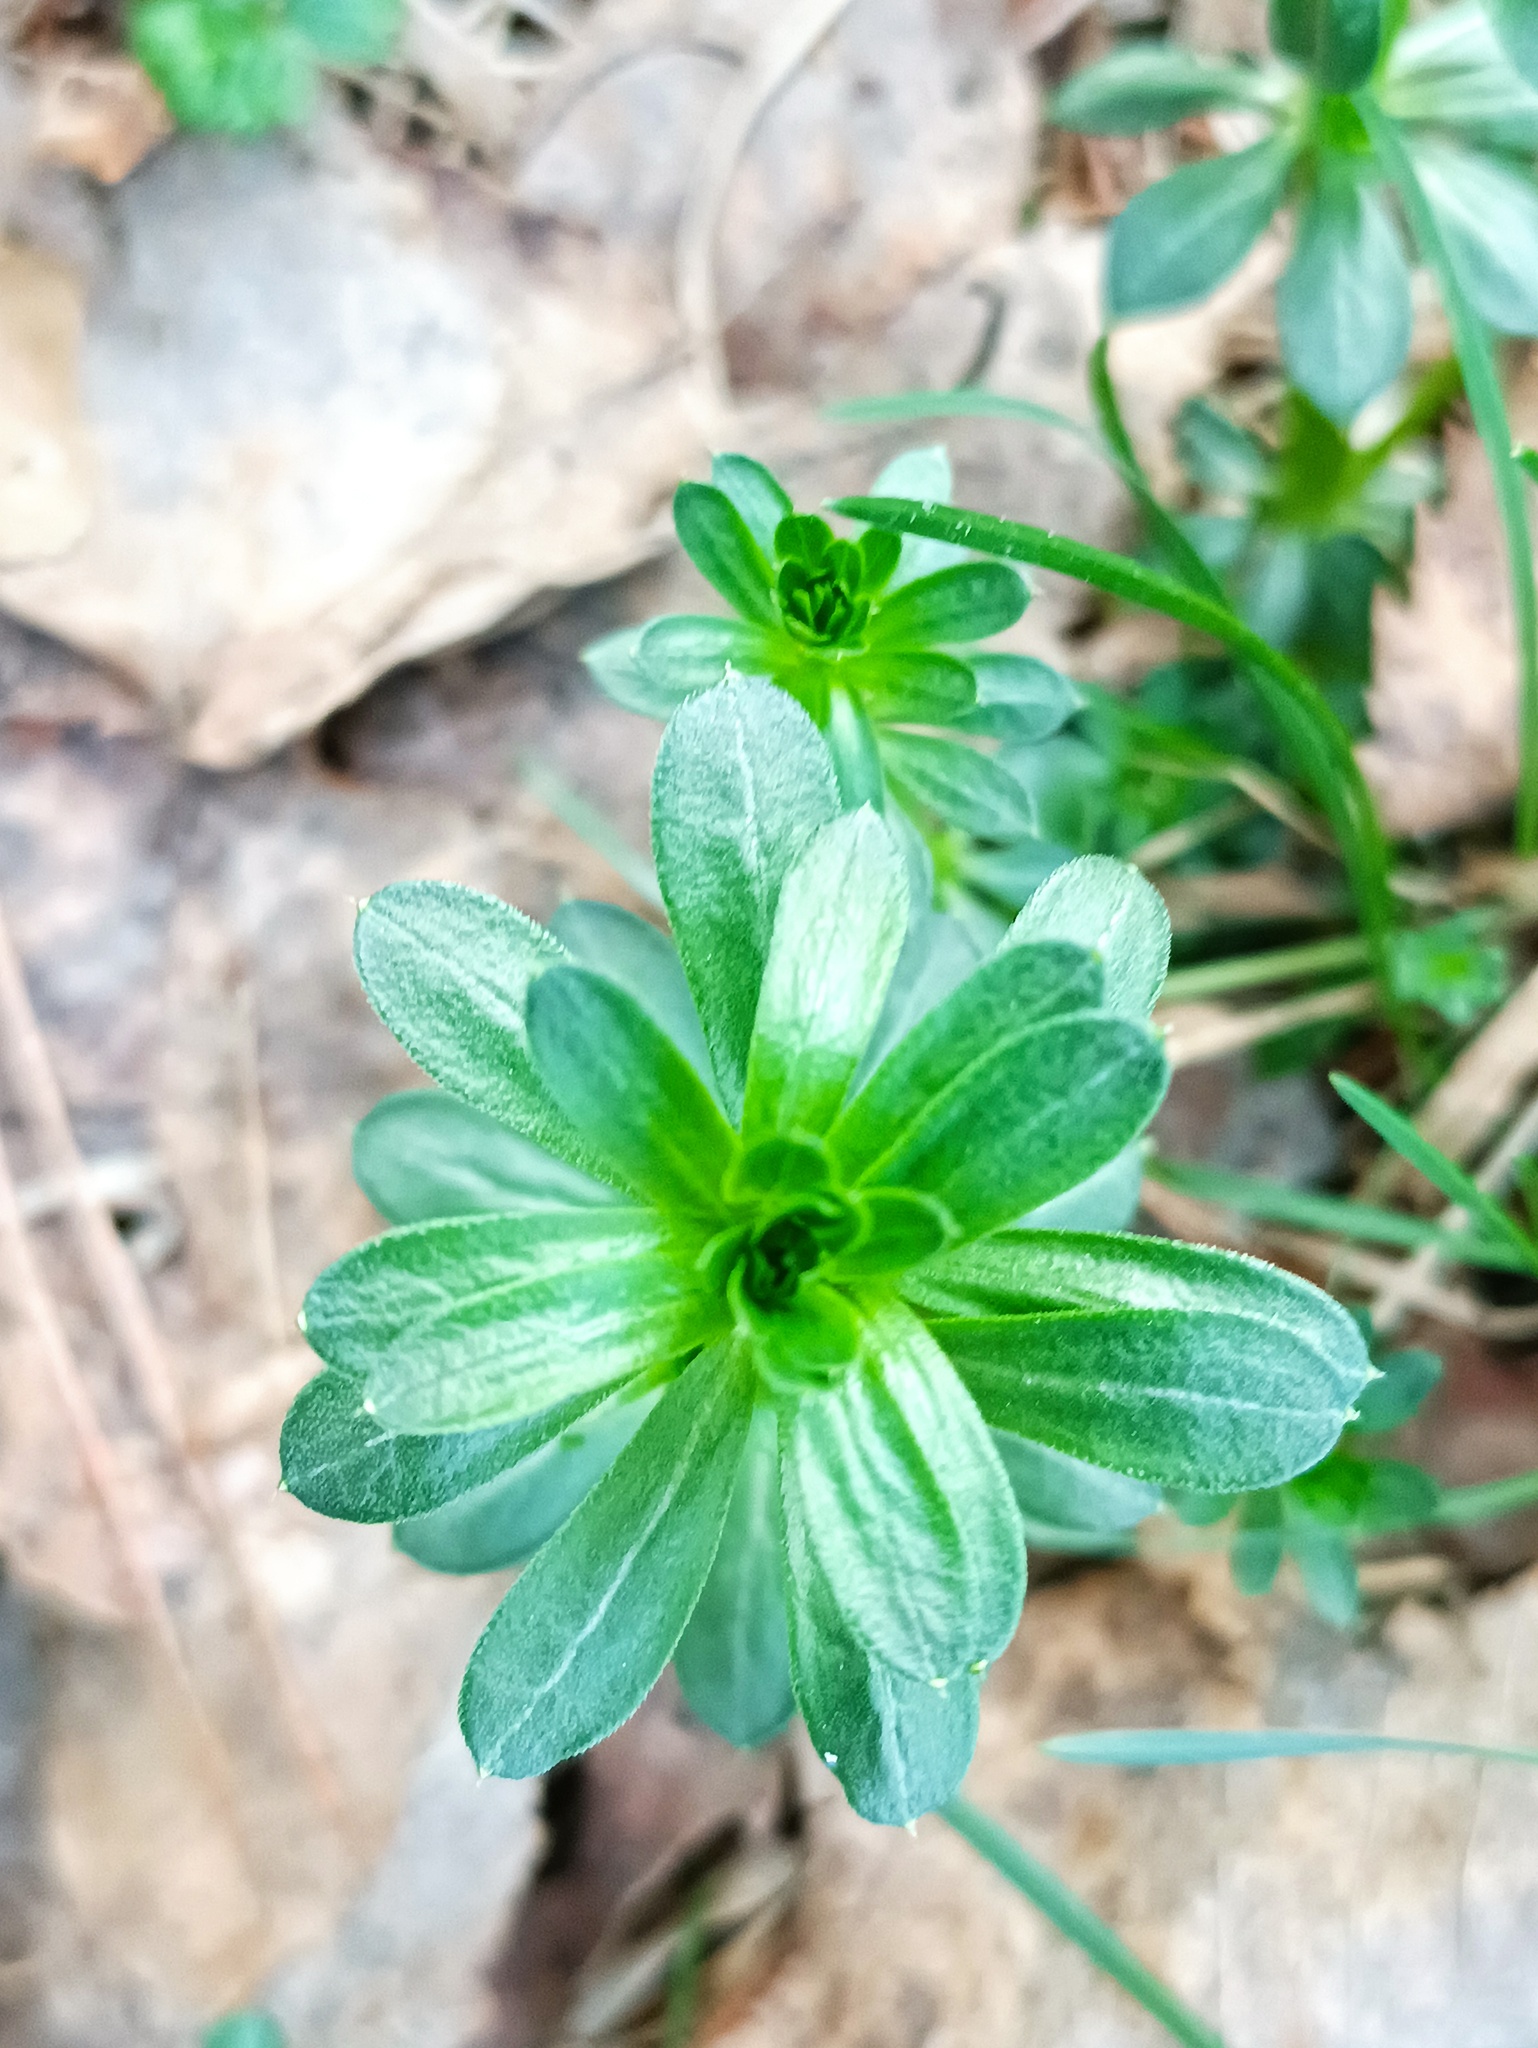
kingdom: Plantae
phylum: Tracheophyta
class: Magnoliopsida
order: Gentianales
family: Rubiaceae
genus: Galium
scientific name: Galium mollugo
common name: Hedge bedstraw
